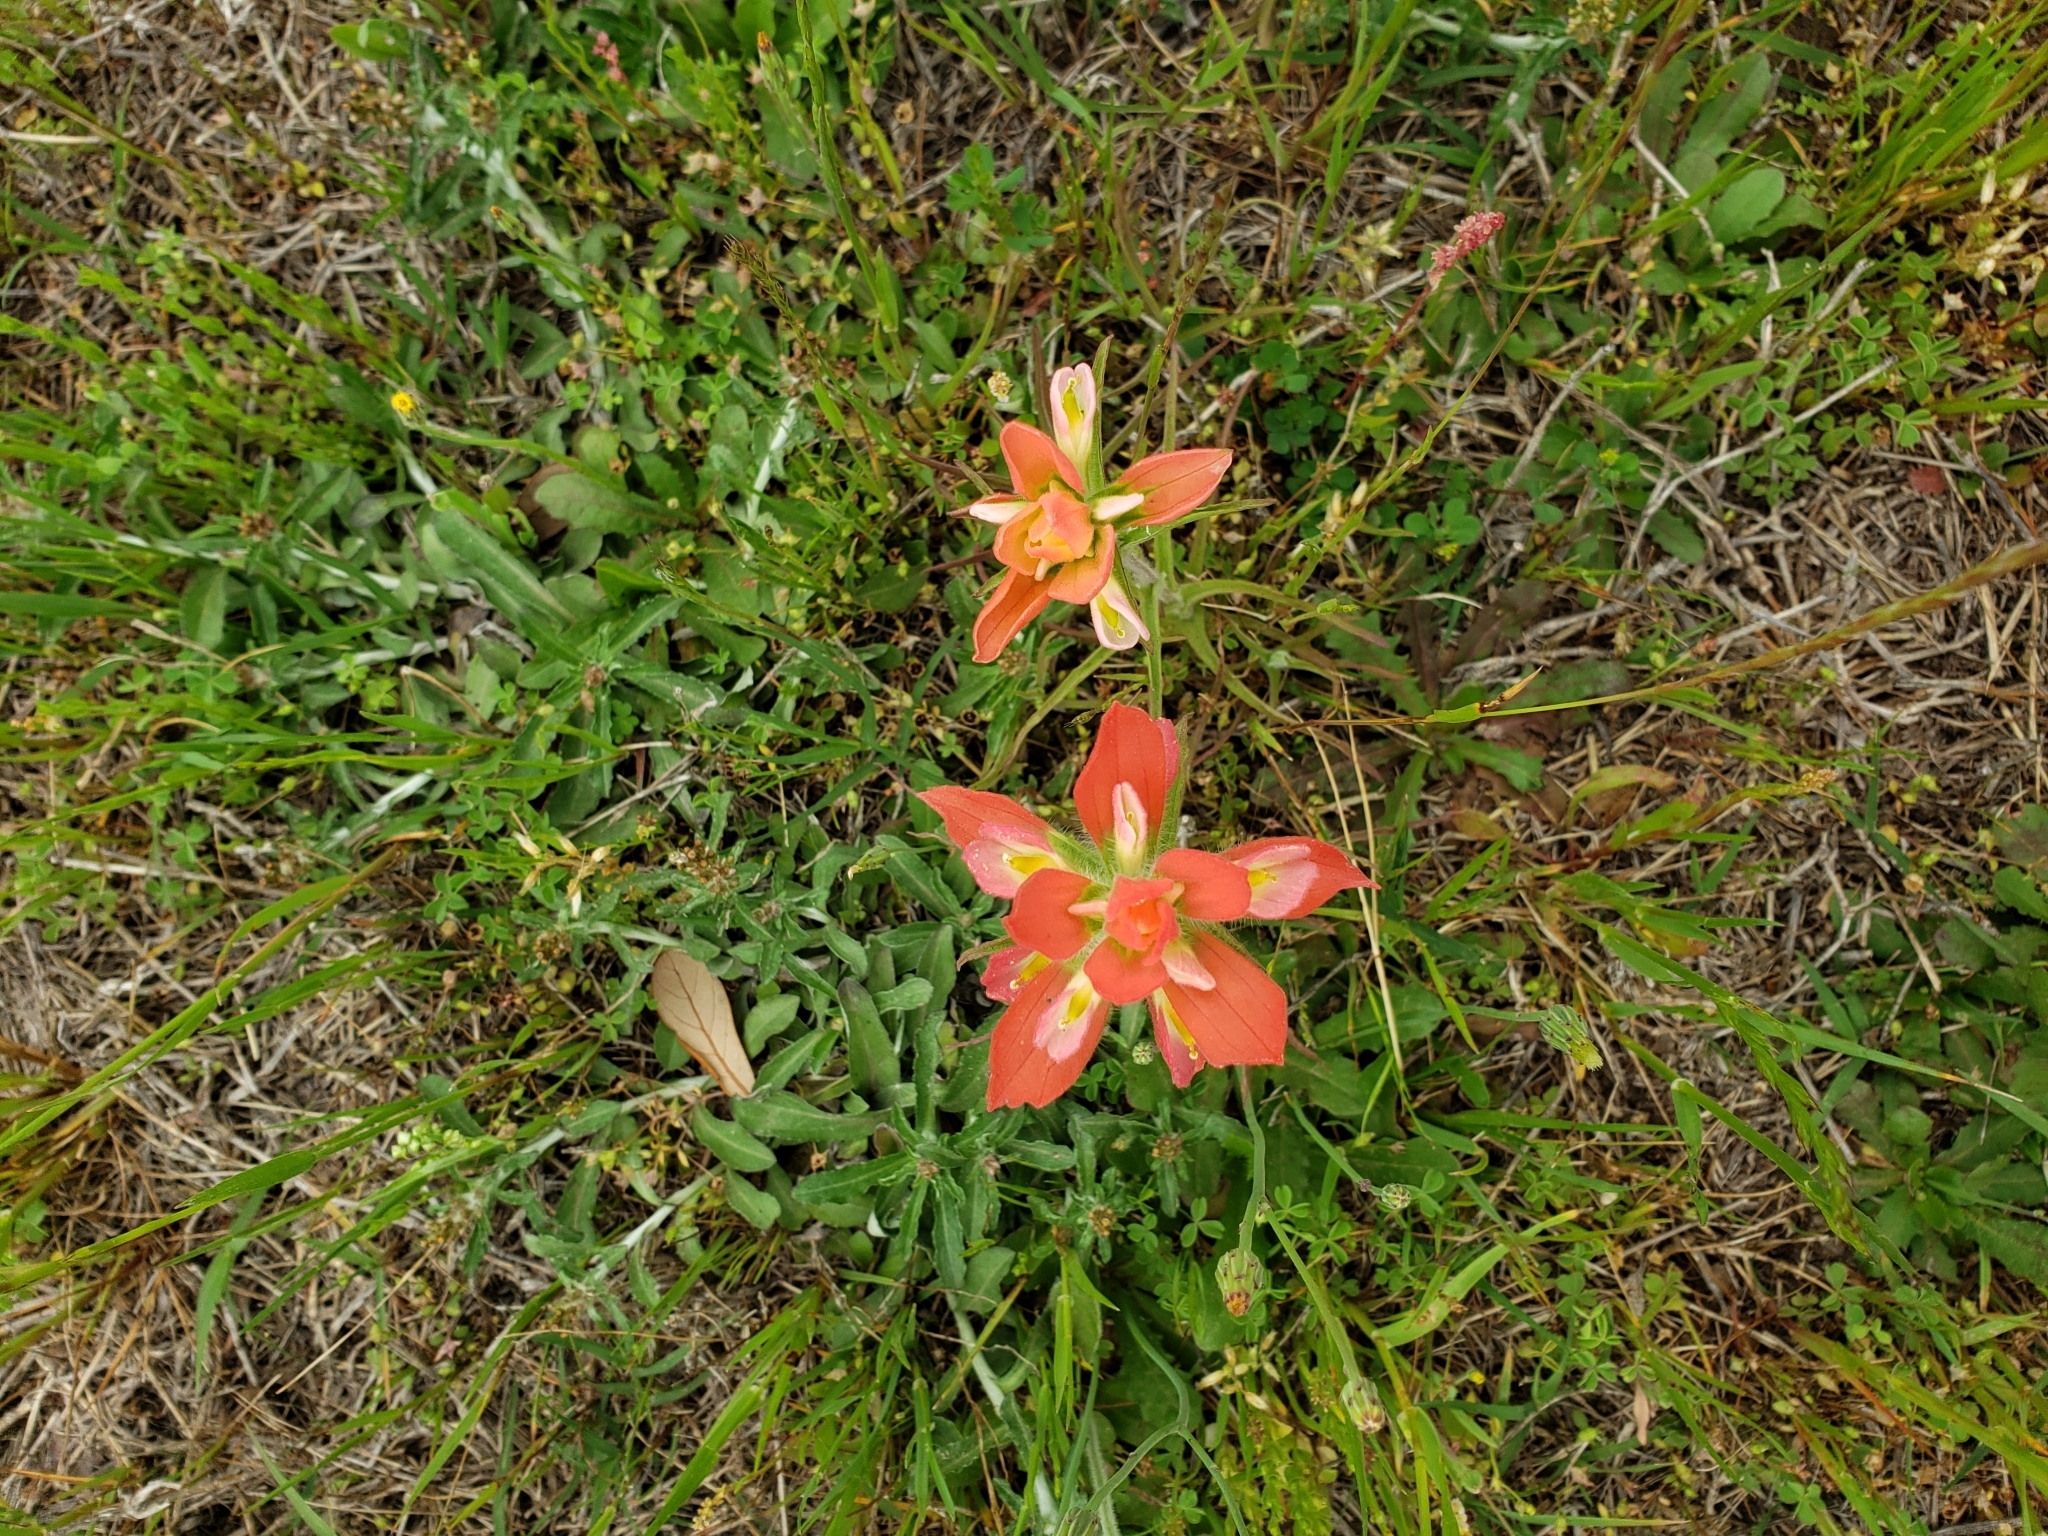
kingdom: Plantae
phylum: Tracheophyta
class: Magnoliopsida
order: Lamiales
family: Orobanchaceae
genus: Castilleja
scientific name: Castilleja indivisa
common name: Texas paintbrush
